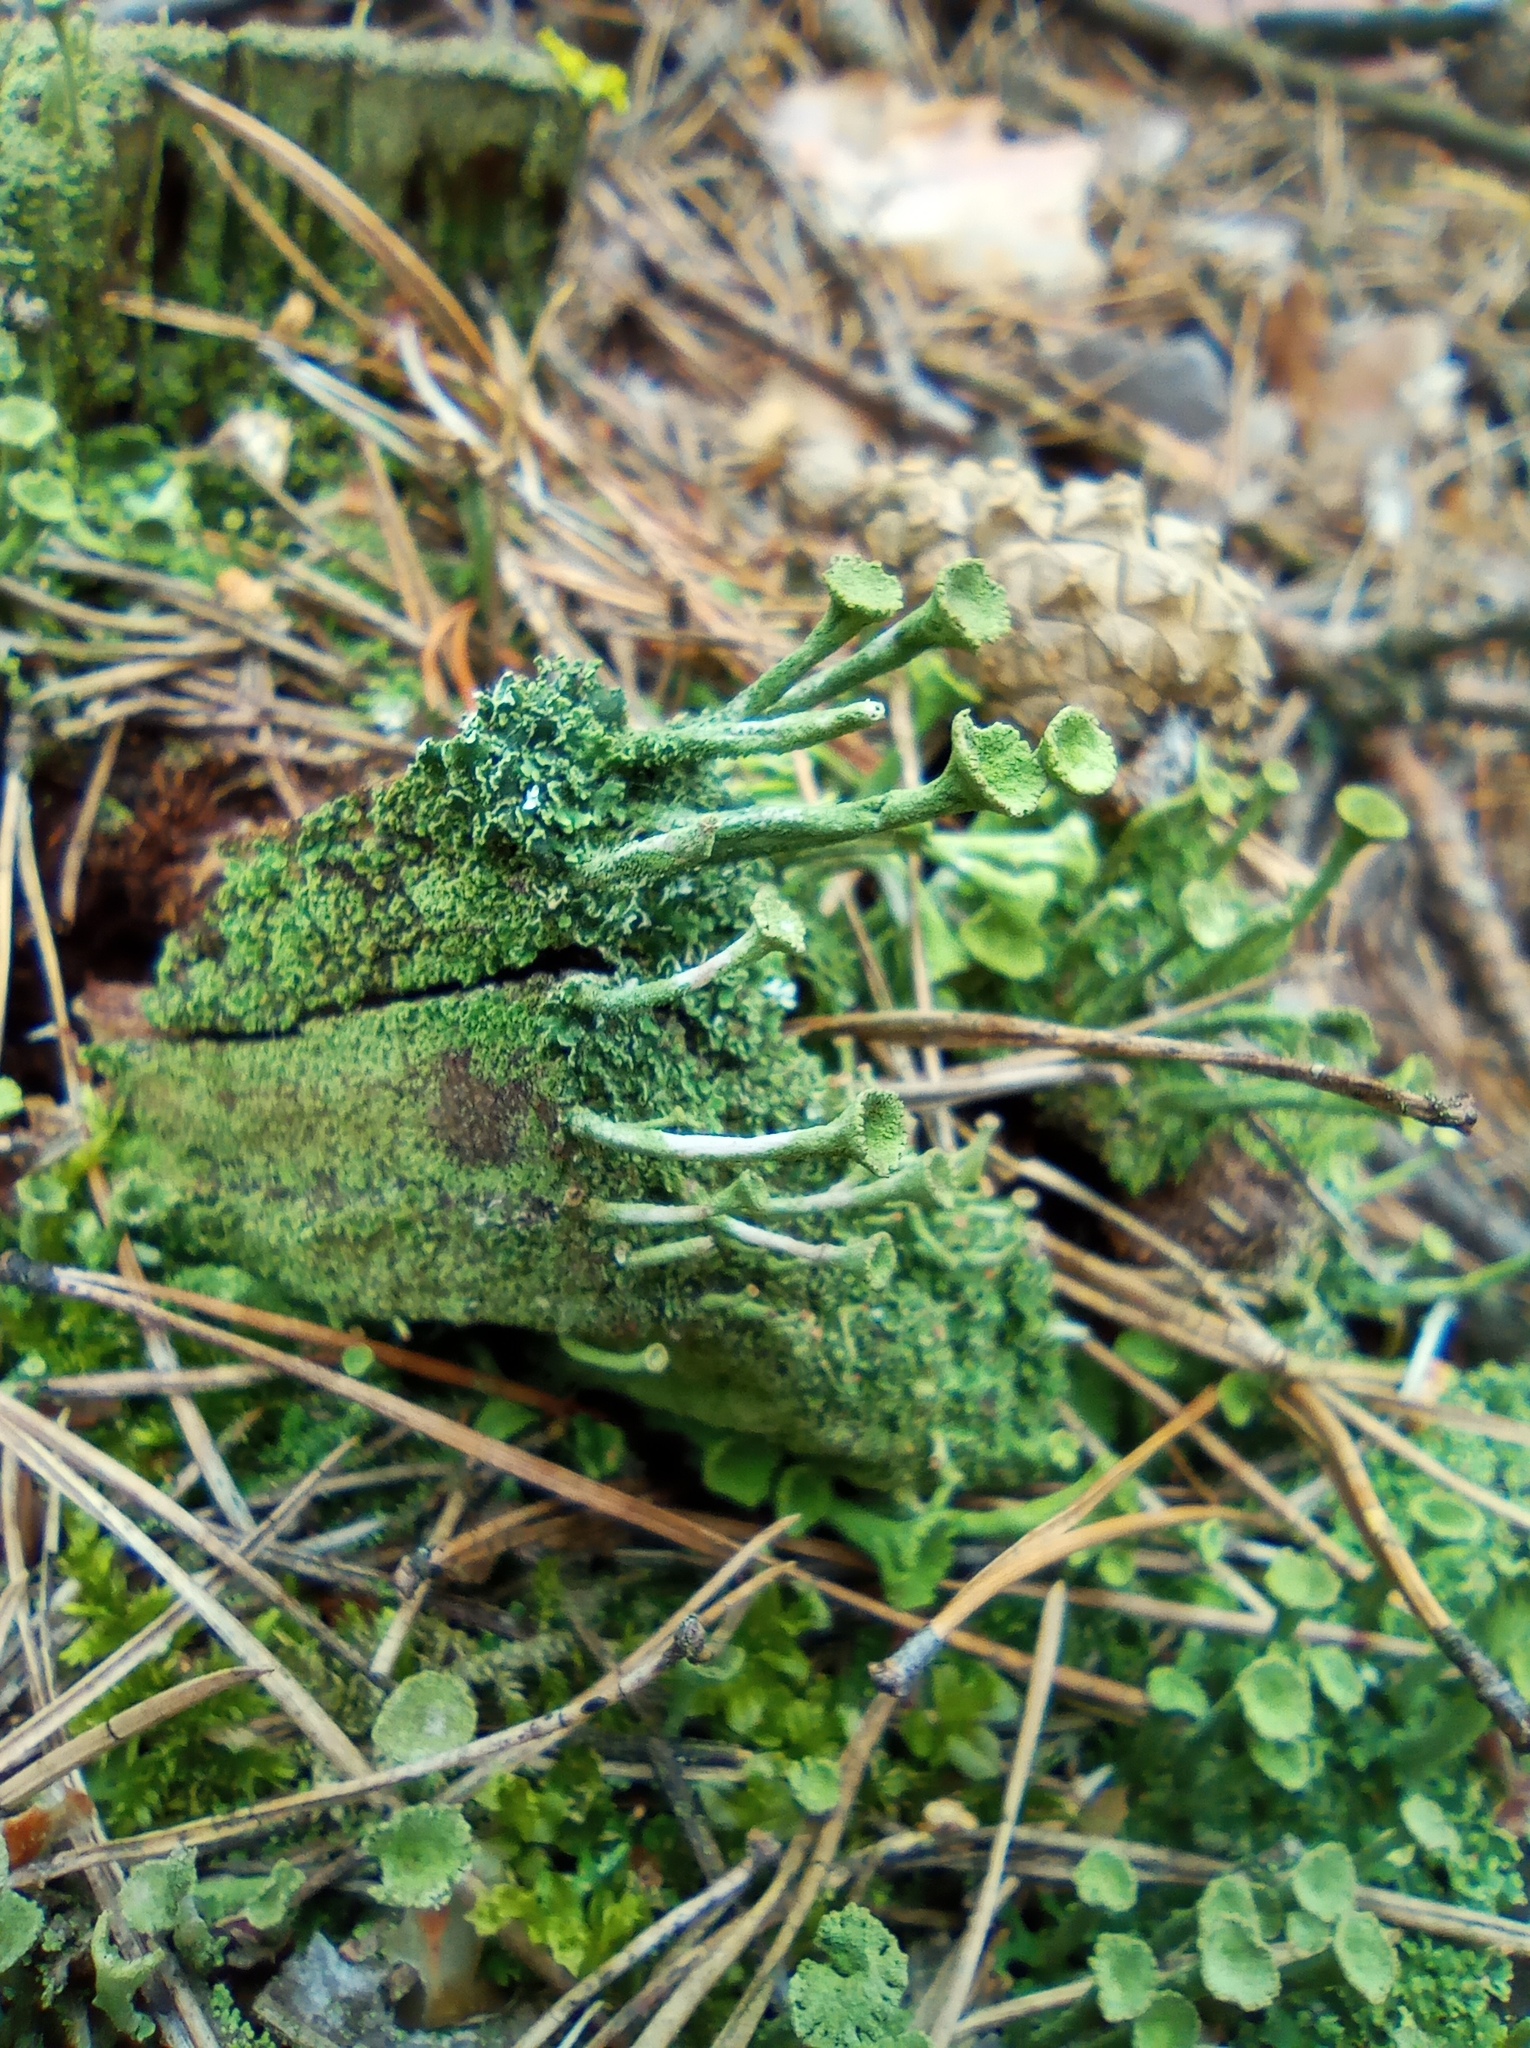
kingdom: Fungi
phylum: Ascomycota
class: Lecanoromycetes
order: Lecanorales
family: Cladoniaceae
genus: Cladonia
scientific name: Cladonia fimbriata
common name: Powdered trumpet lichen
